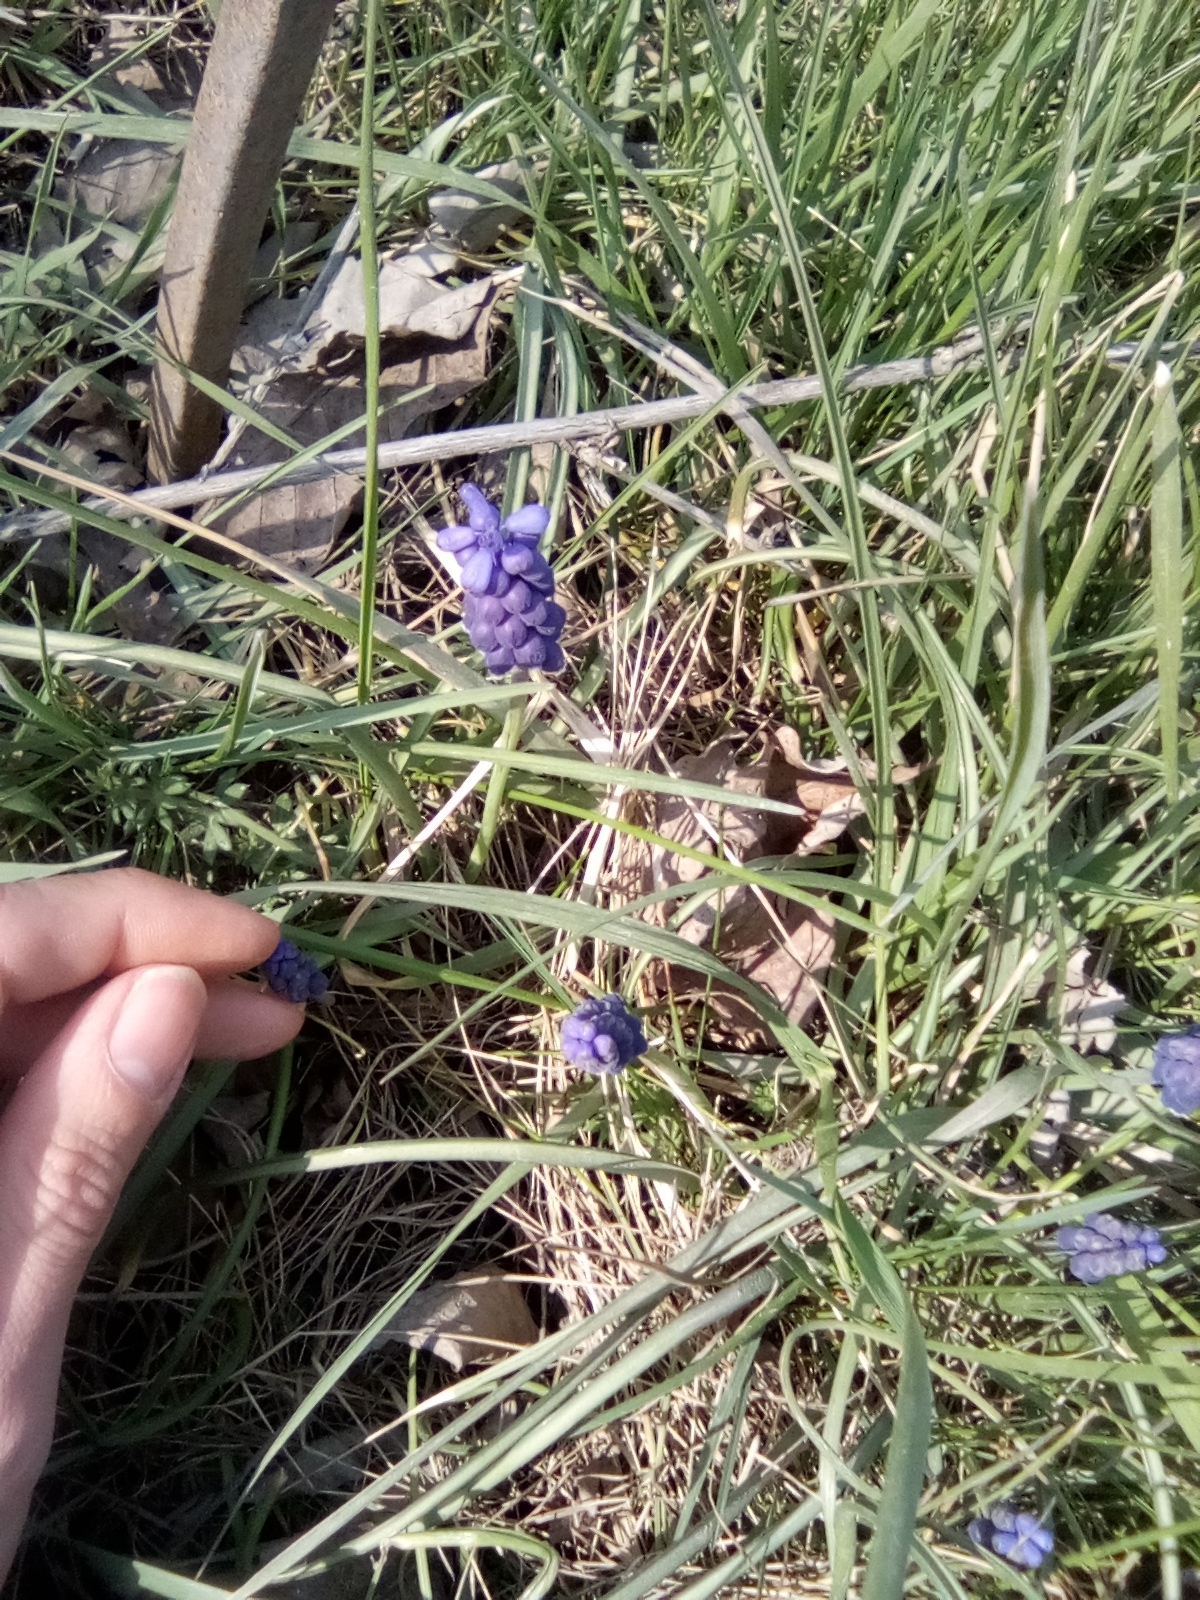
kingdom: Plantae
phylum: Tracheophyta
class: Liliopsida
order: Asparagales
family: Asparagaceae
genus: Muscari
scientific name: Muscari neglectum
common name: Grape-hyacinth
